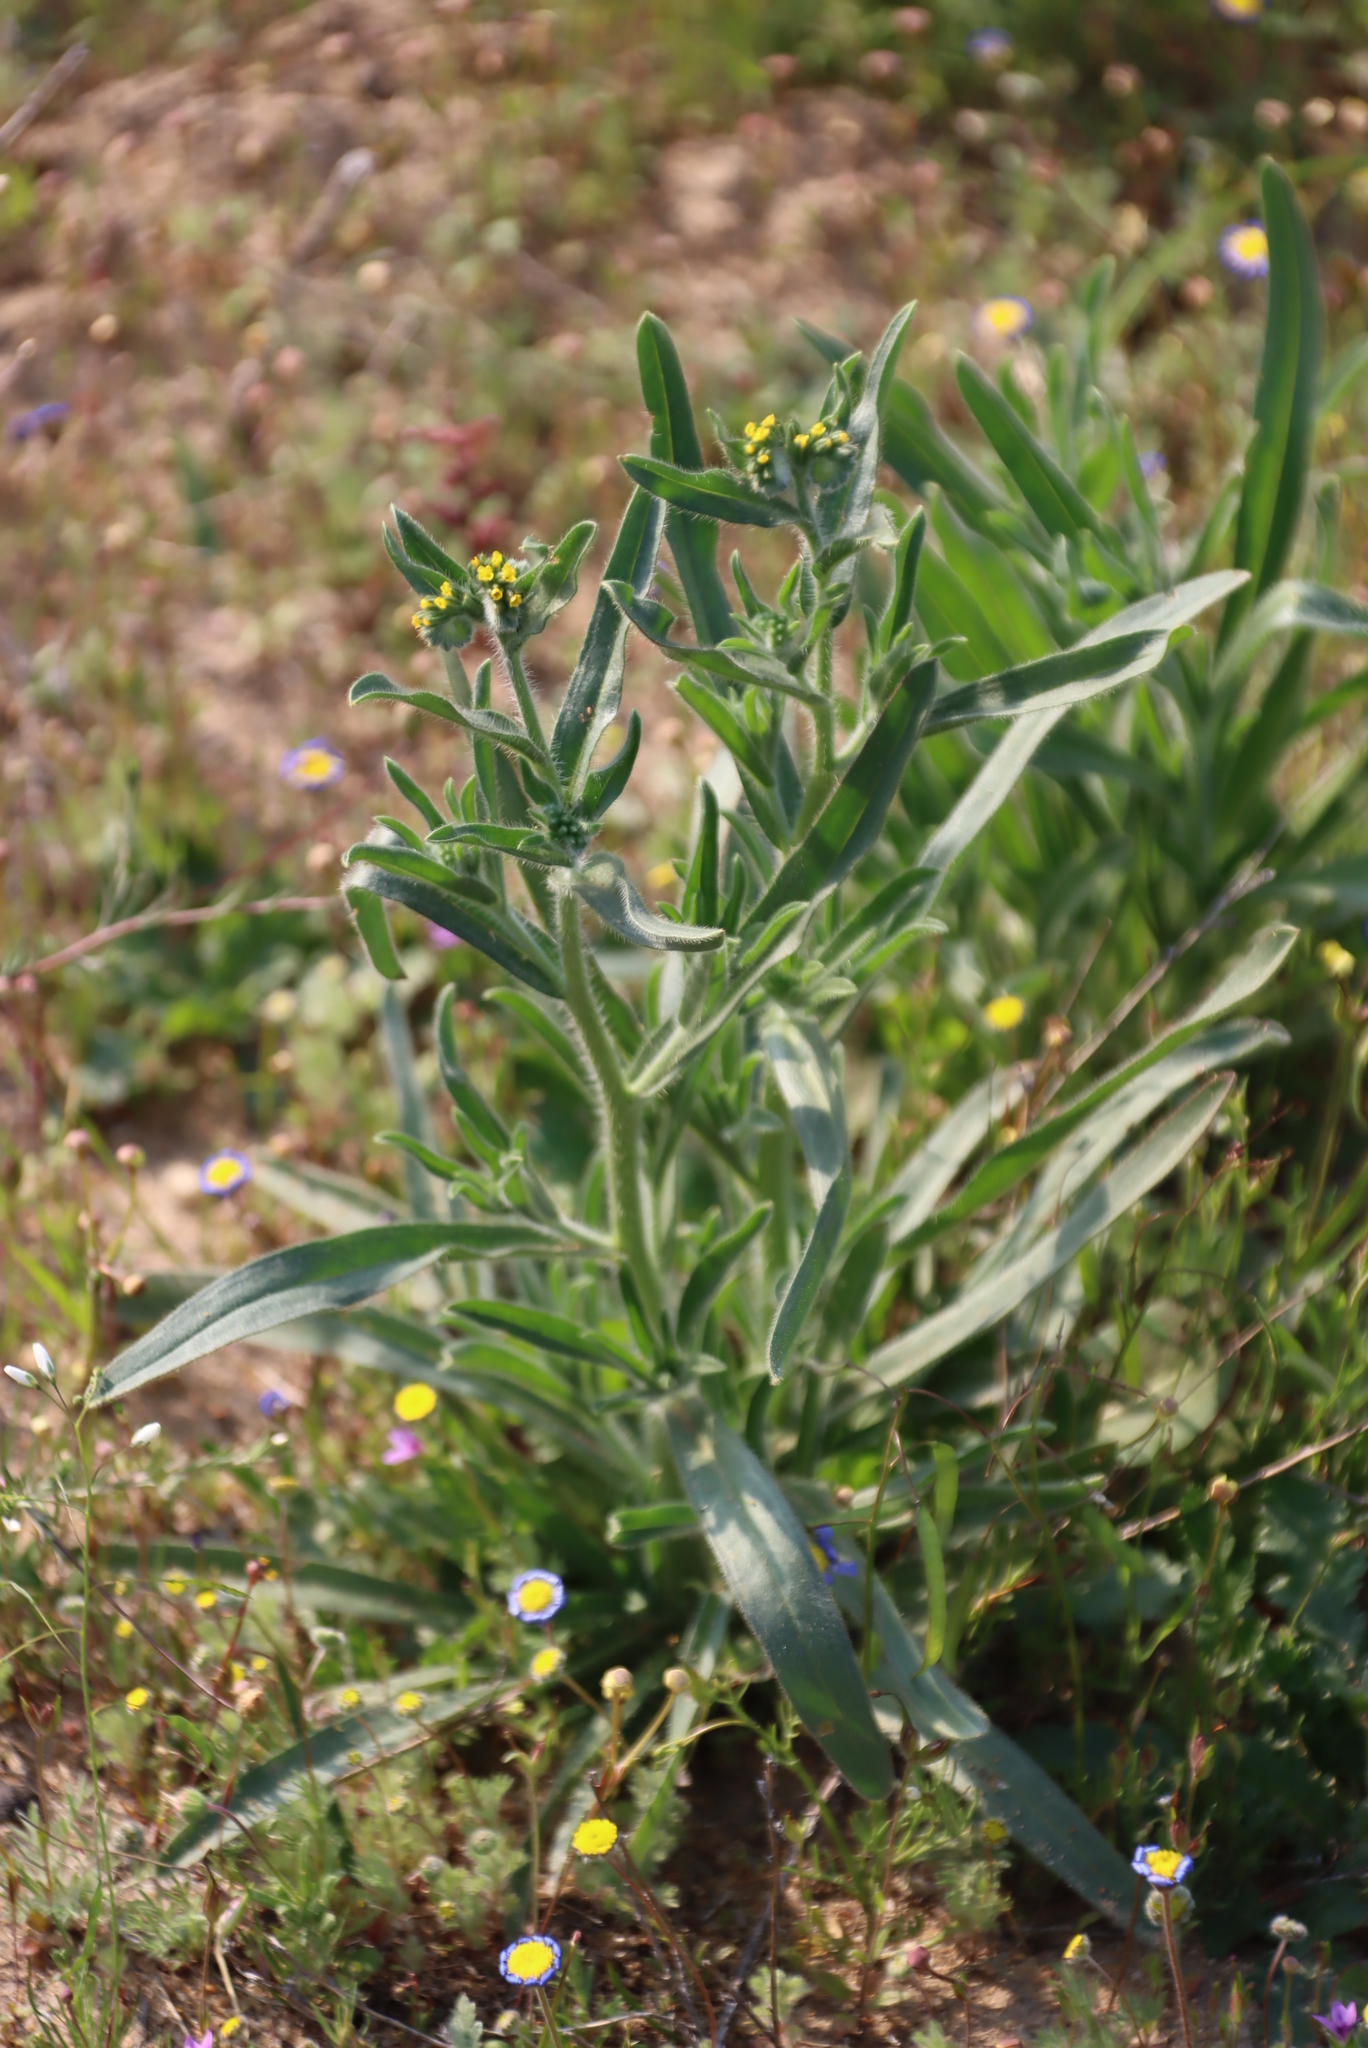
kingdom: Plantae
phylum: Tracheophyta
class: Magnoliopsida
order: Boraginales
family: Boraginaceae
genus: Amsinckia
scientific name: Amsinckia menziesii
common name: Menzies' fiddleneck
